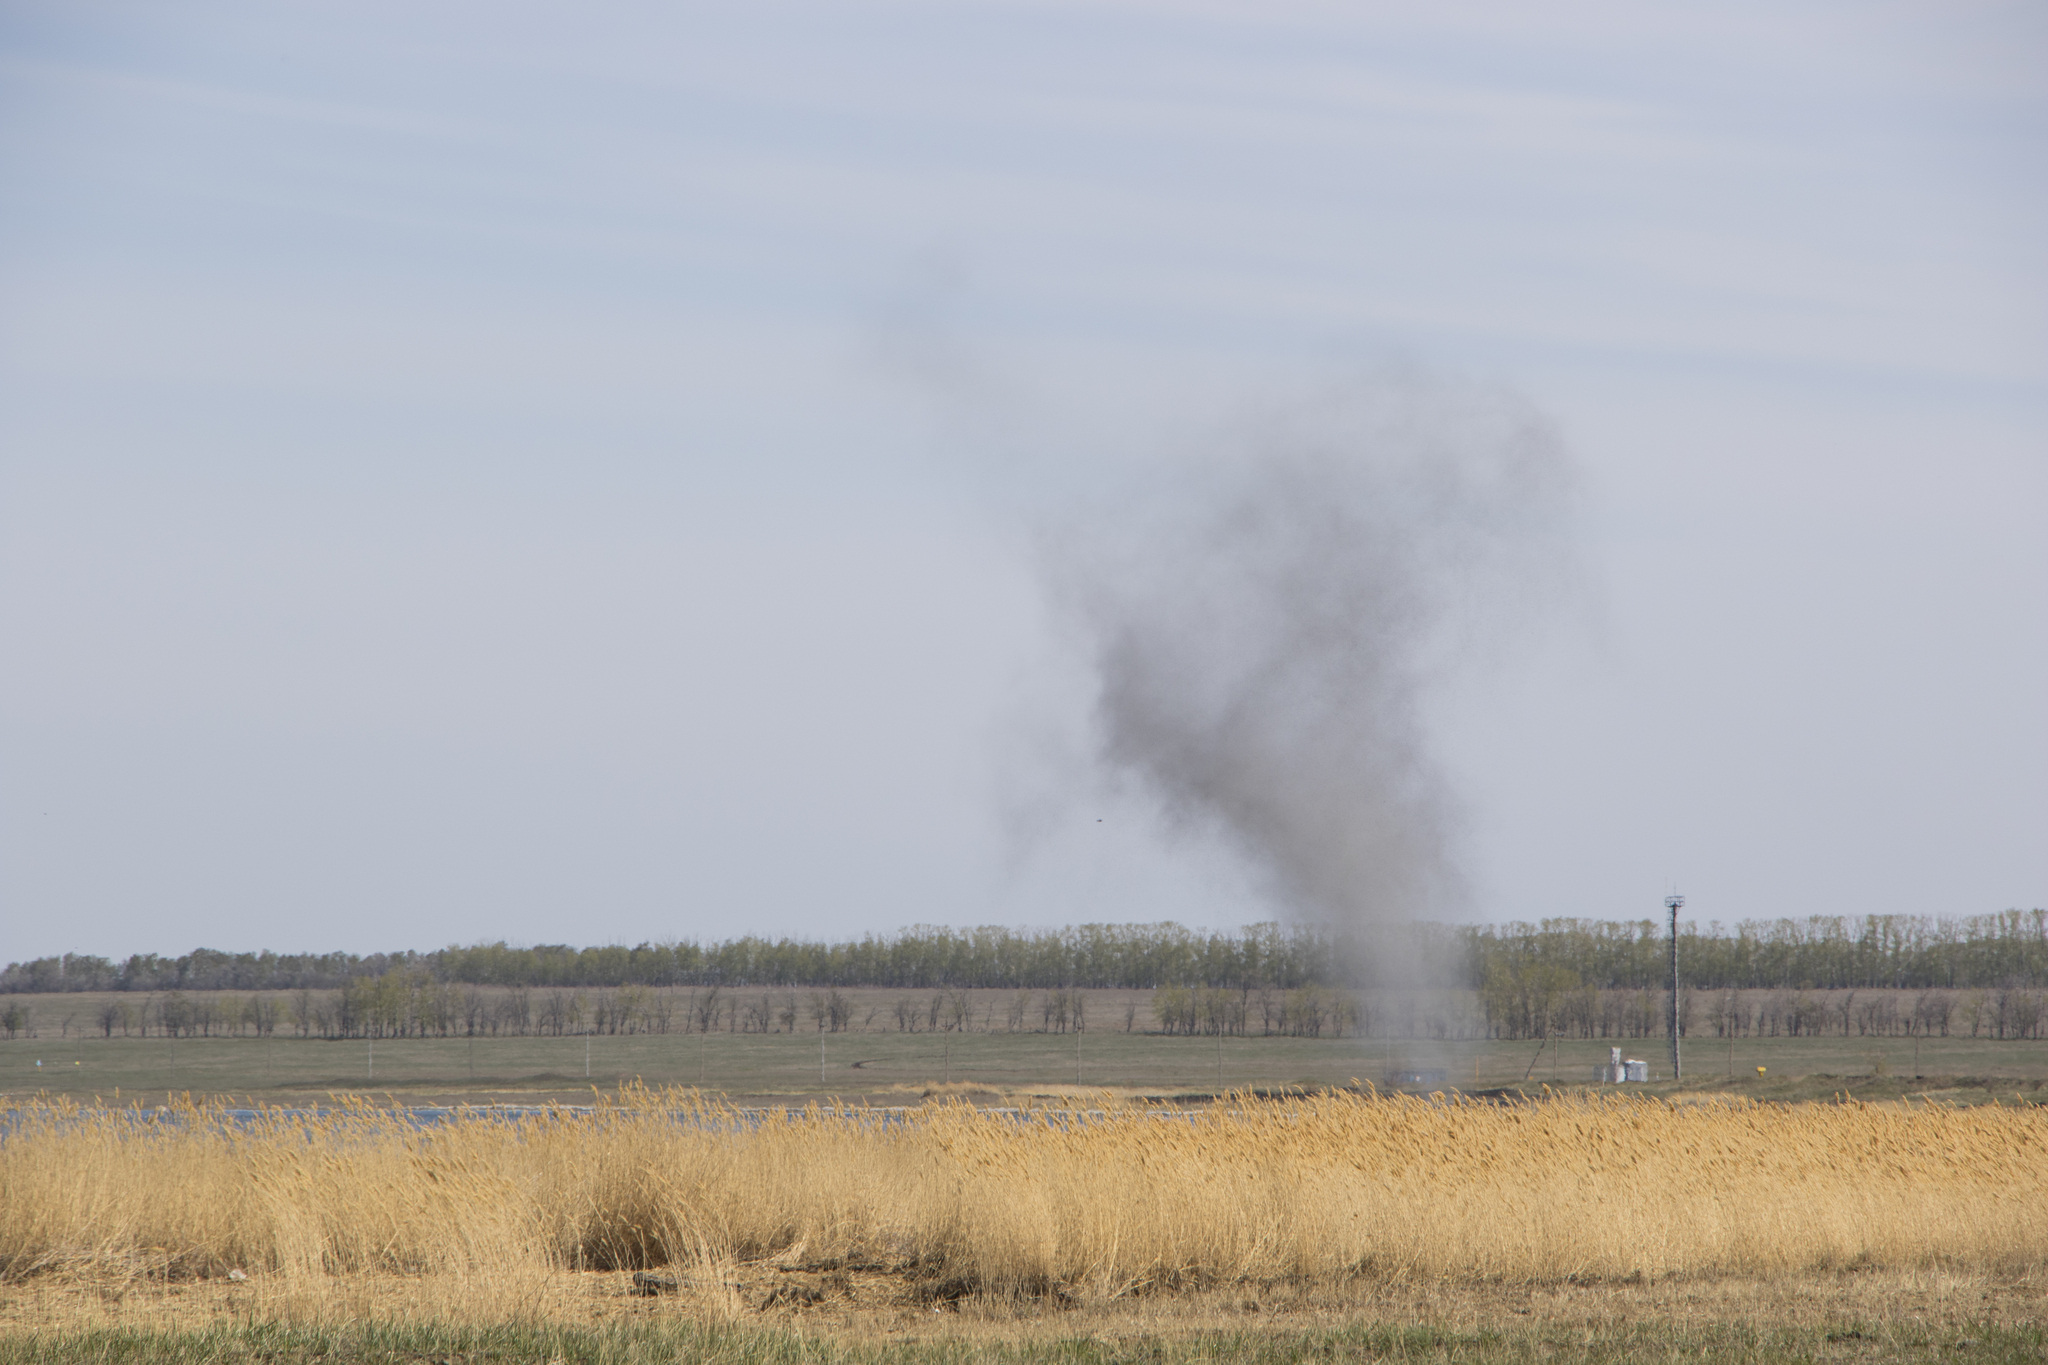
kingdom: Plantae
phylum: Tracheophyta
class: Liliopsida
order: Poales
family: Poaceae
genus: Phragmites
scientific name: Phragmites australis
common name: Common reed
